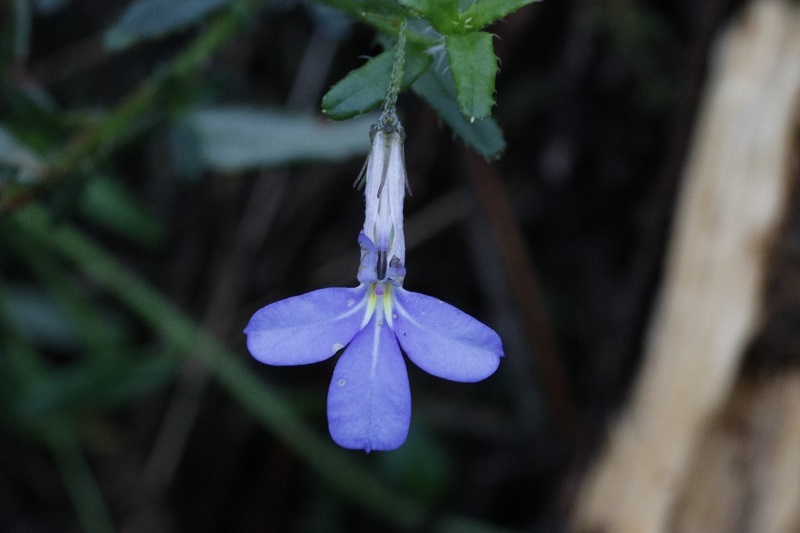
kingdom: Plantae
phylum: Tracheophyta
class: Magnoliopsida
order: Asterales
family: Campanulaceae
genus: Lobelia
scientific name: Lobelia neglecta
